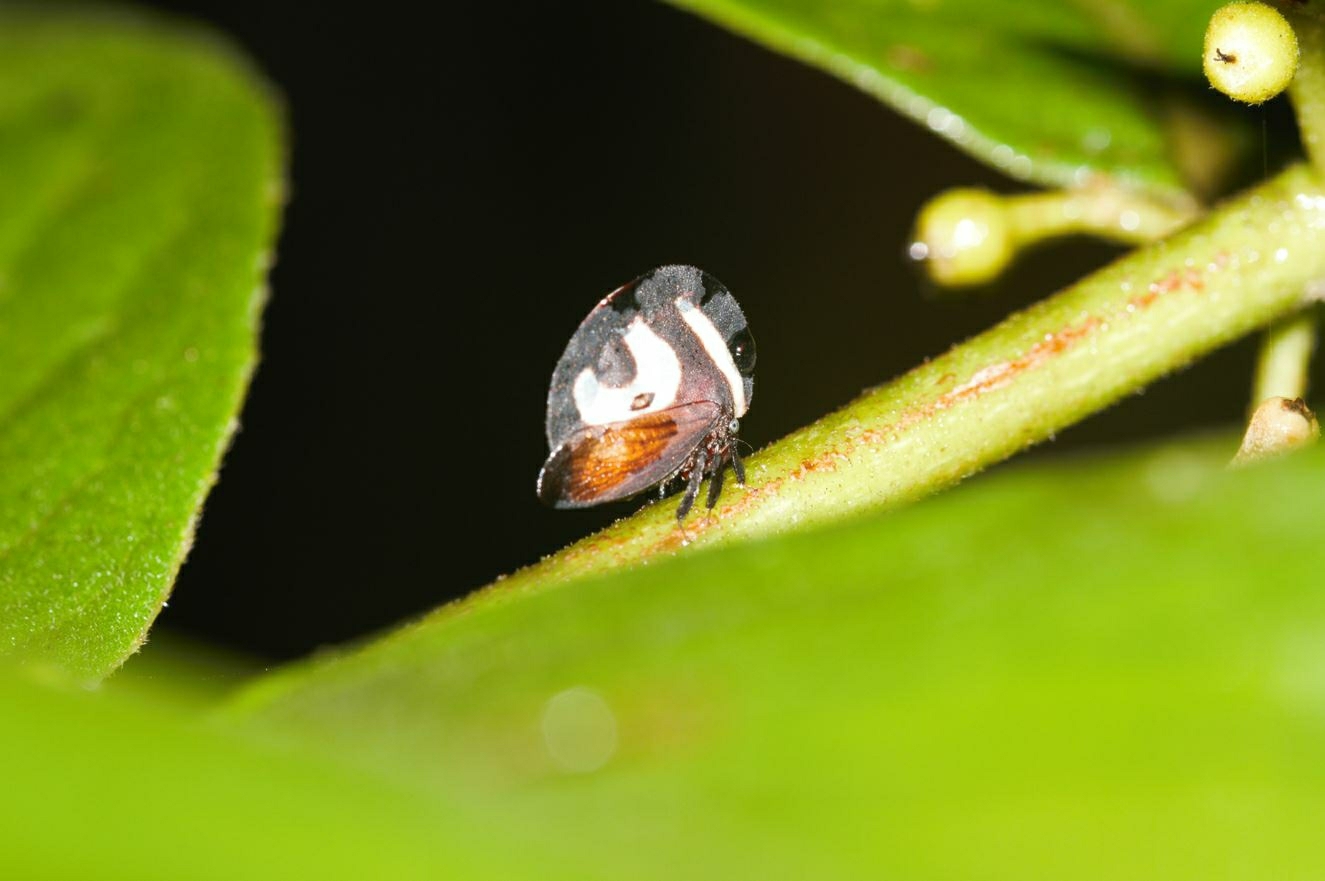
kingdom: Animalia
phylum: Arthropoda
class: Insecta
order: Hemiptera
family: Membracidae
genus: Membracis
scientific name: Membracis foliatafasciata
